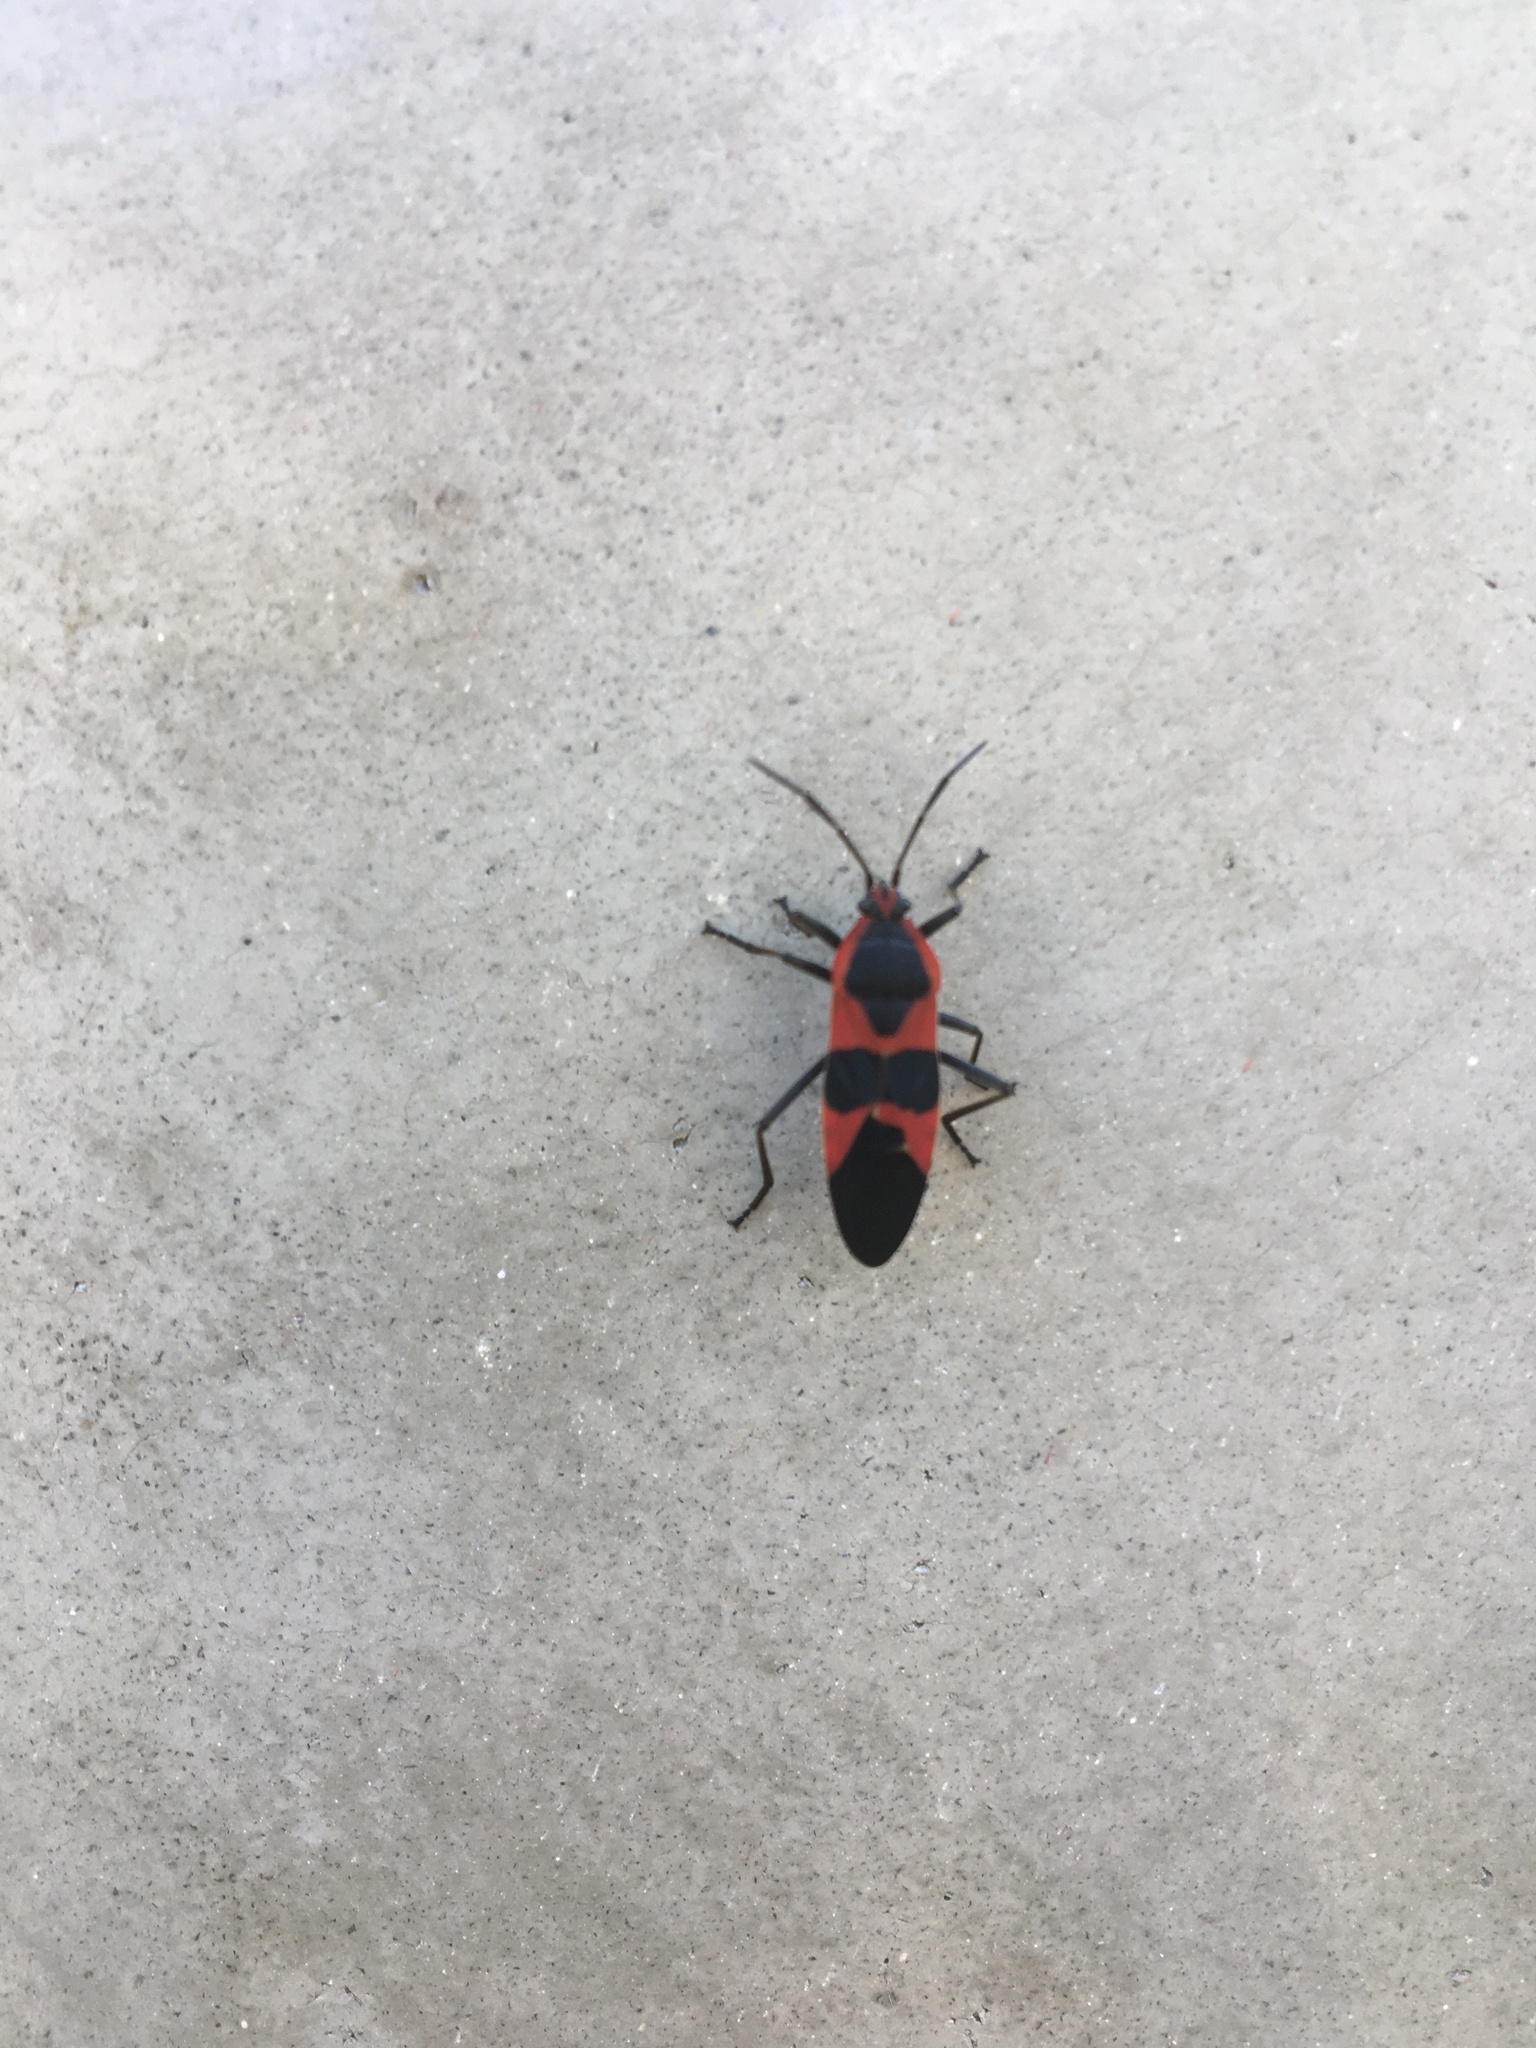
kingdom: Animalia
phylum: Arthropoda
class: Insecta
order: Hemiptera
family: Lygaeidae
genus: Oncopeltus
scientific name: Oncopeltus fasciatus
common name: Large milkweed bug
